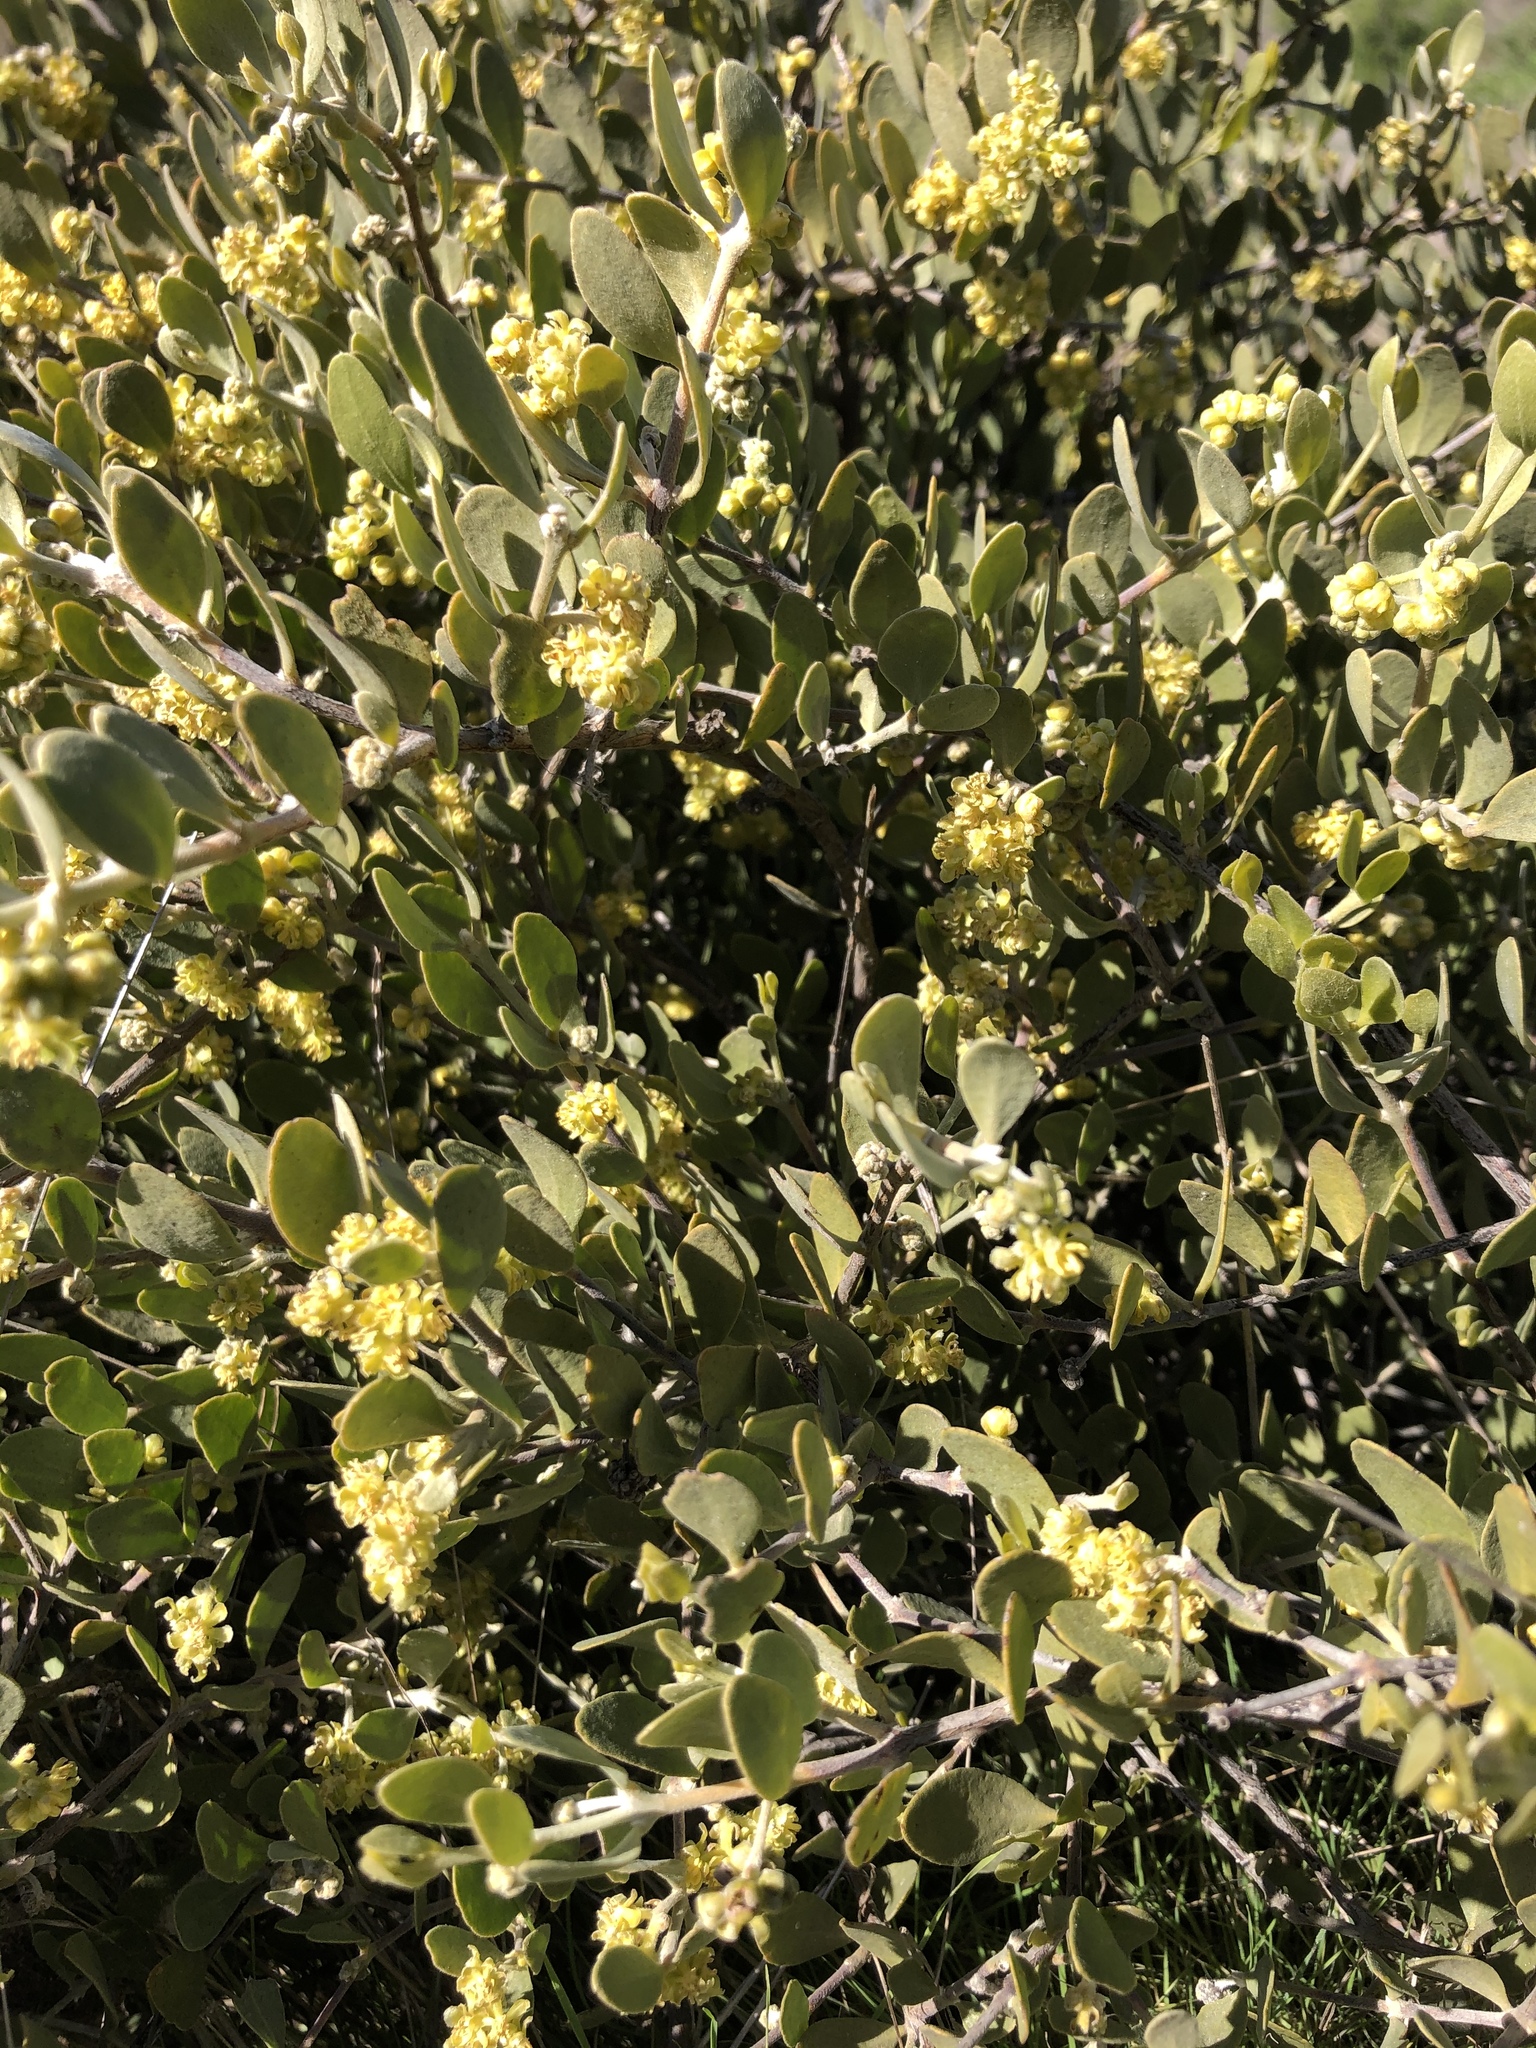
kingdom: Plantae
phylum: Tracheophyta
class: Magnoliopsida
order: Caryophyllales
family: Simmondsiaceae
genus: Simmondsia
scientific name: Simmondsia chinensis
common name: Jojoba
